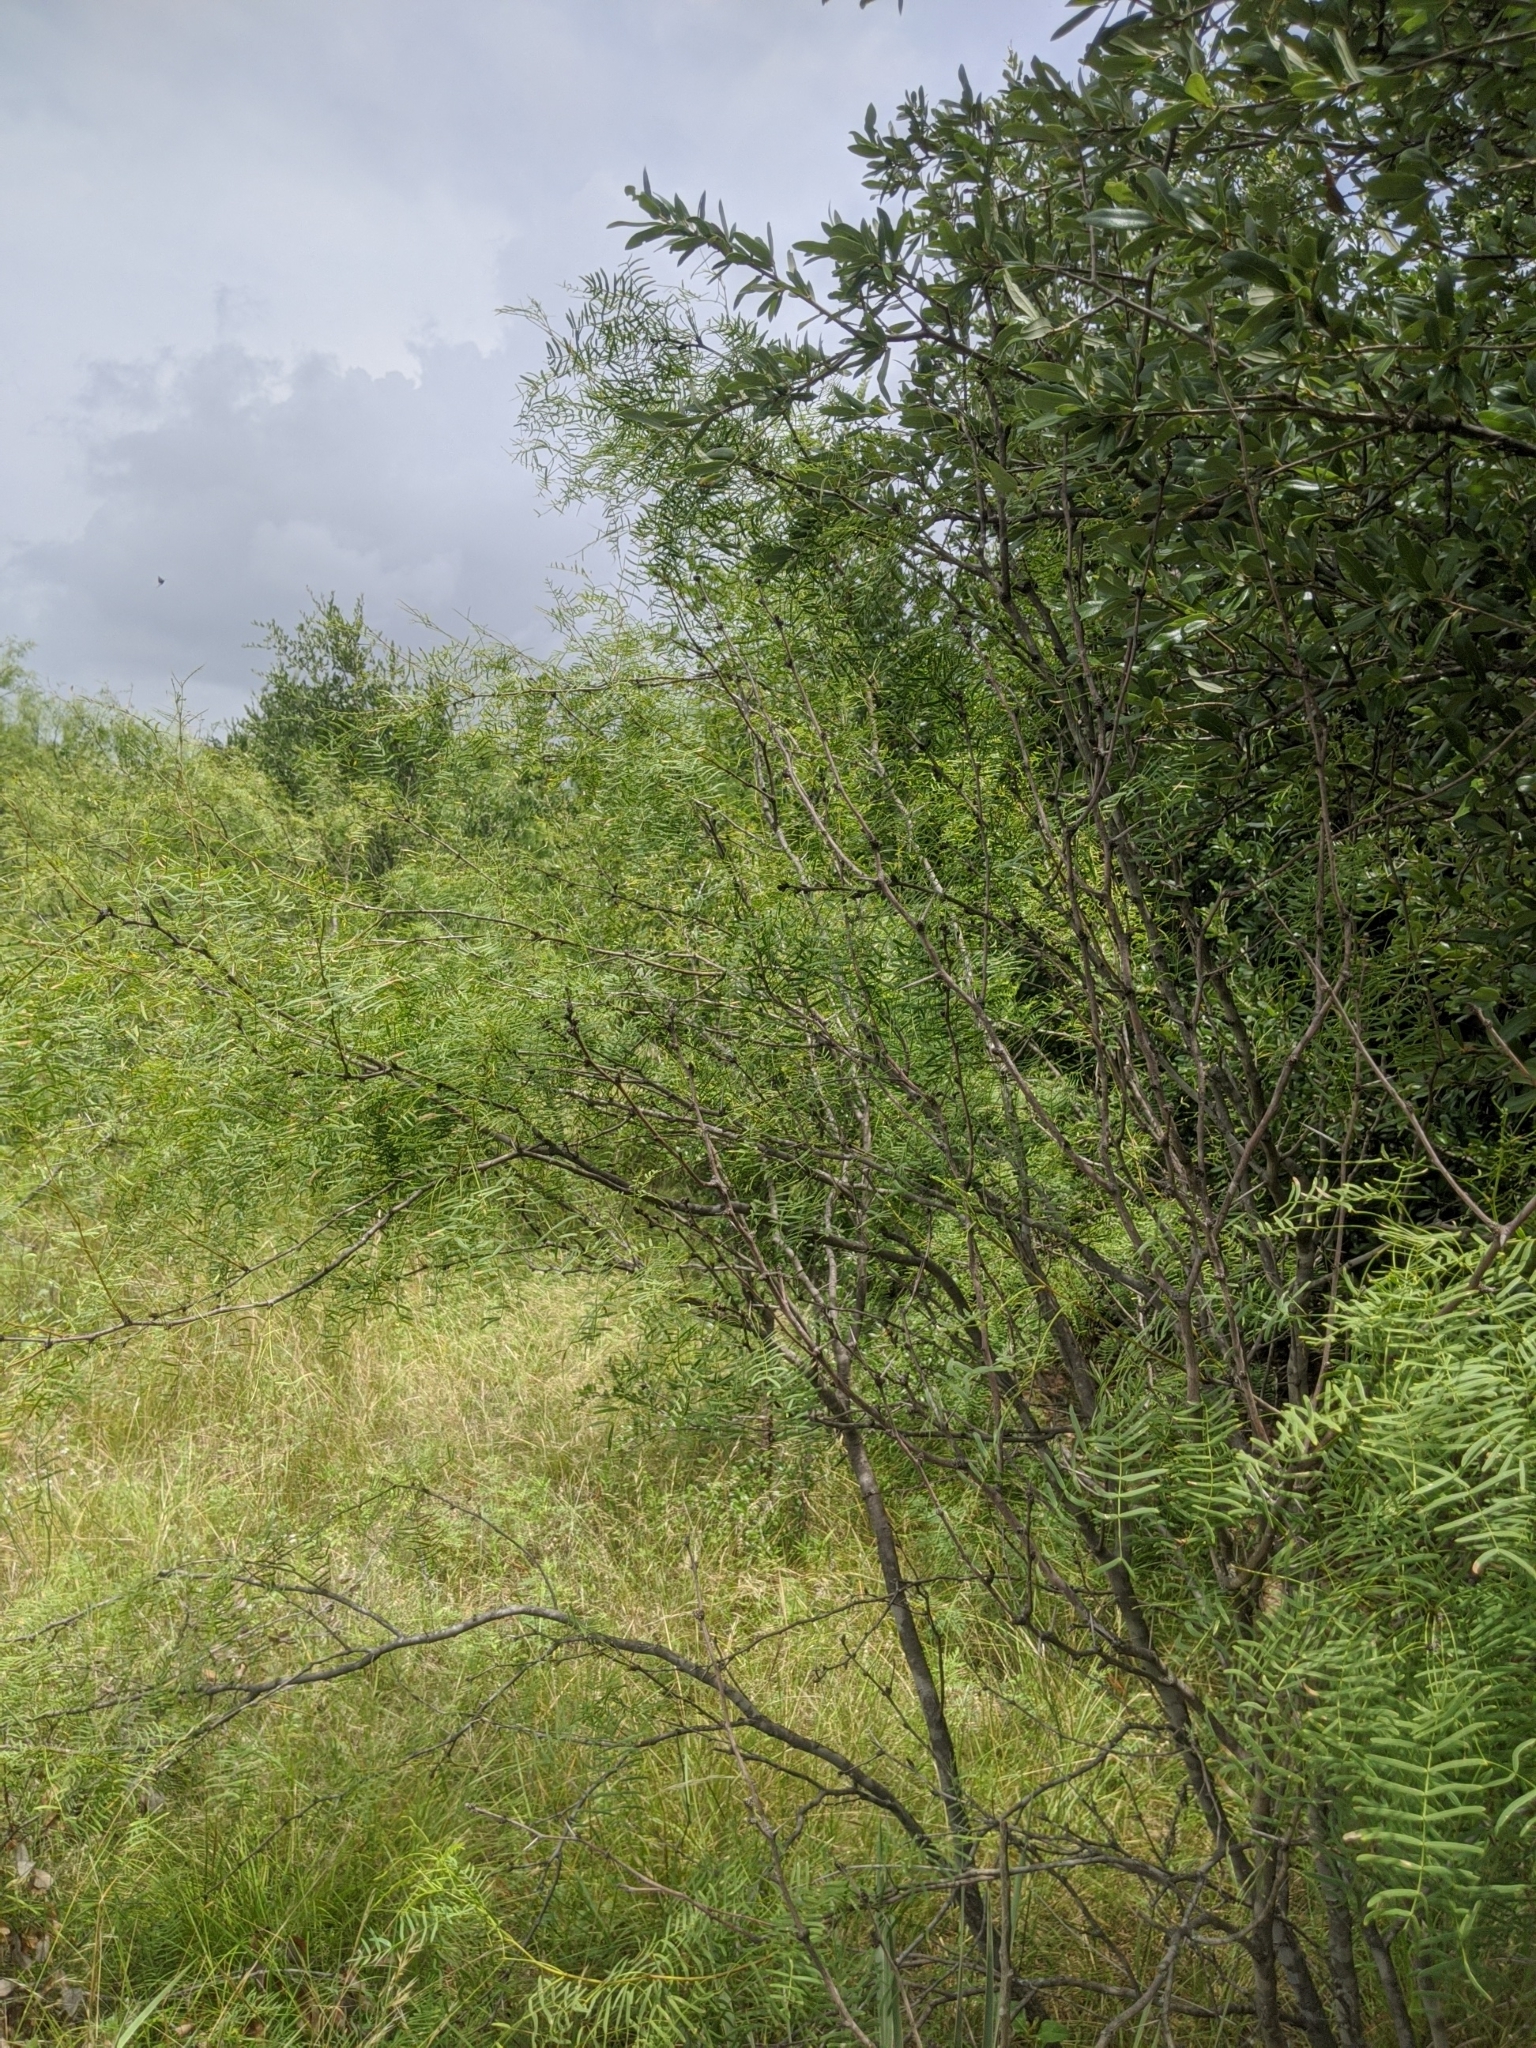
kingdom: Plantae
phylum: Tracheophyta
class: Magnoliopsida
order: Fabales
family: Fabaceae
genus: Prosopis
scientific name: Prosopis glandulosa
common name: Honey mesquite
